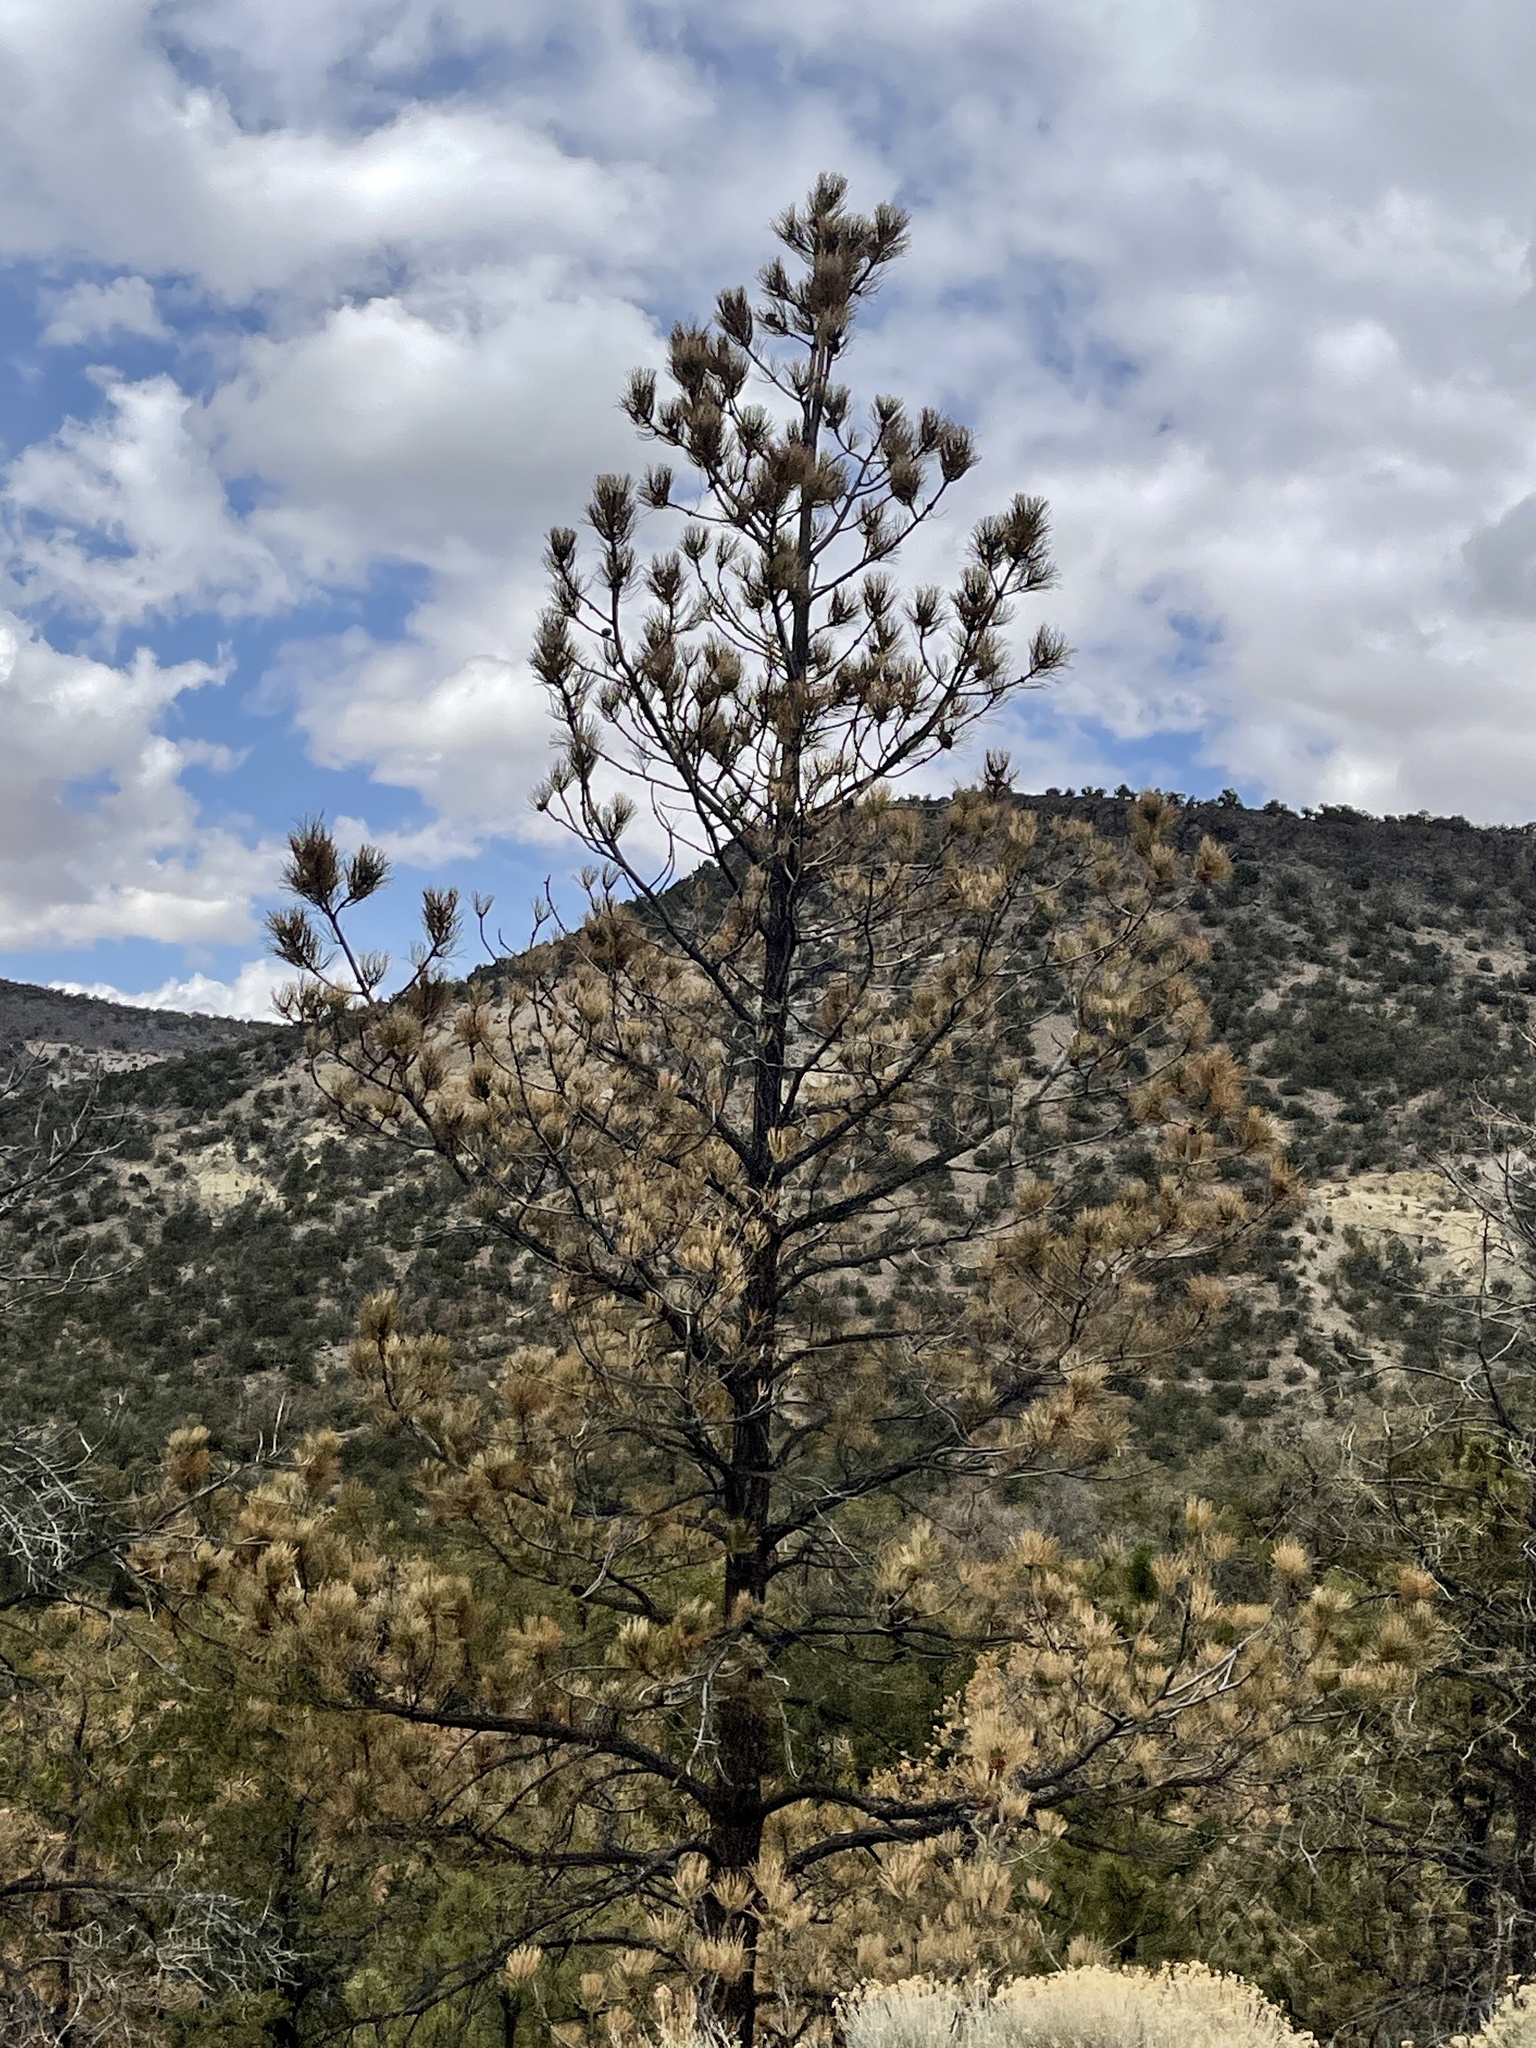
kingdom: Plantae
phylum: Tracheophyta
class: Pinopsida
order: Pinales
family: Pinaceae
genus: Pinus
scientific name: Pinus ponderosa
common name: Western yellow-pine
